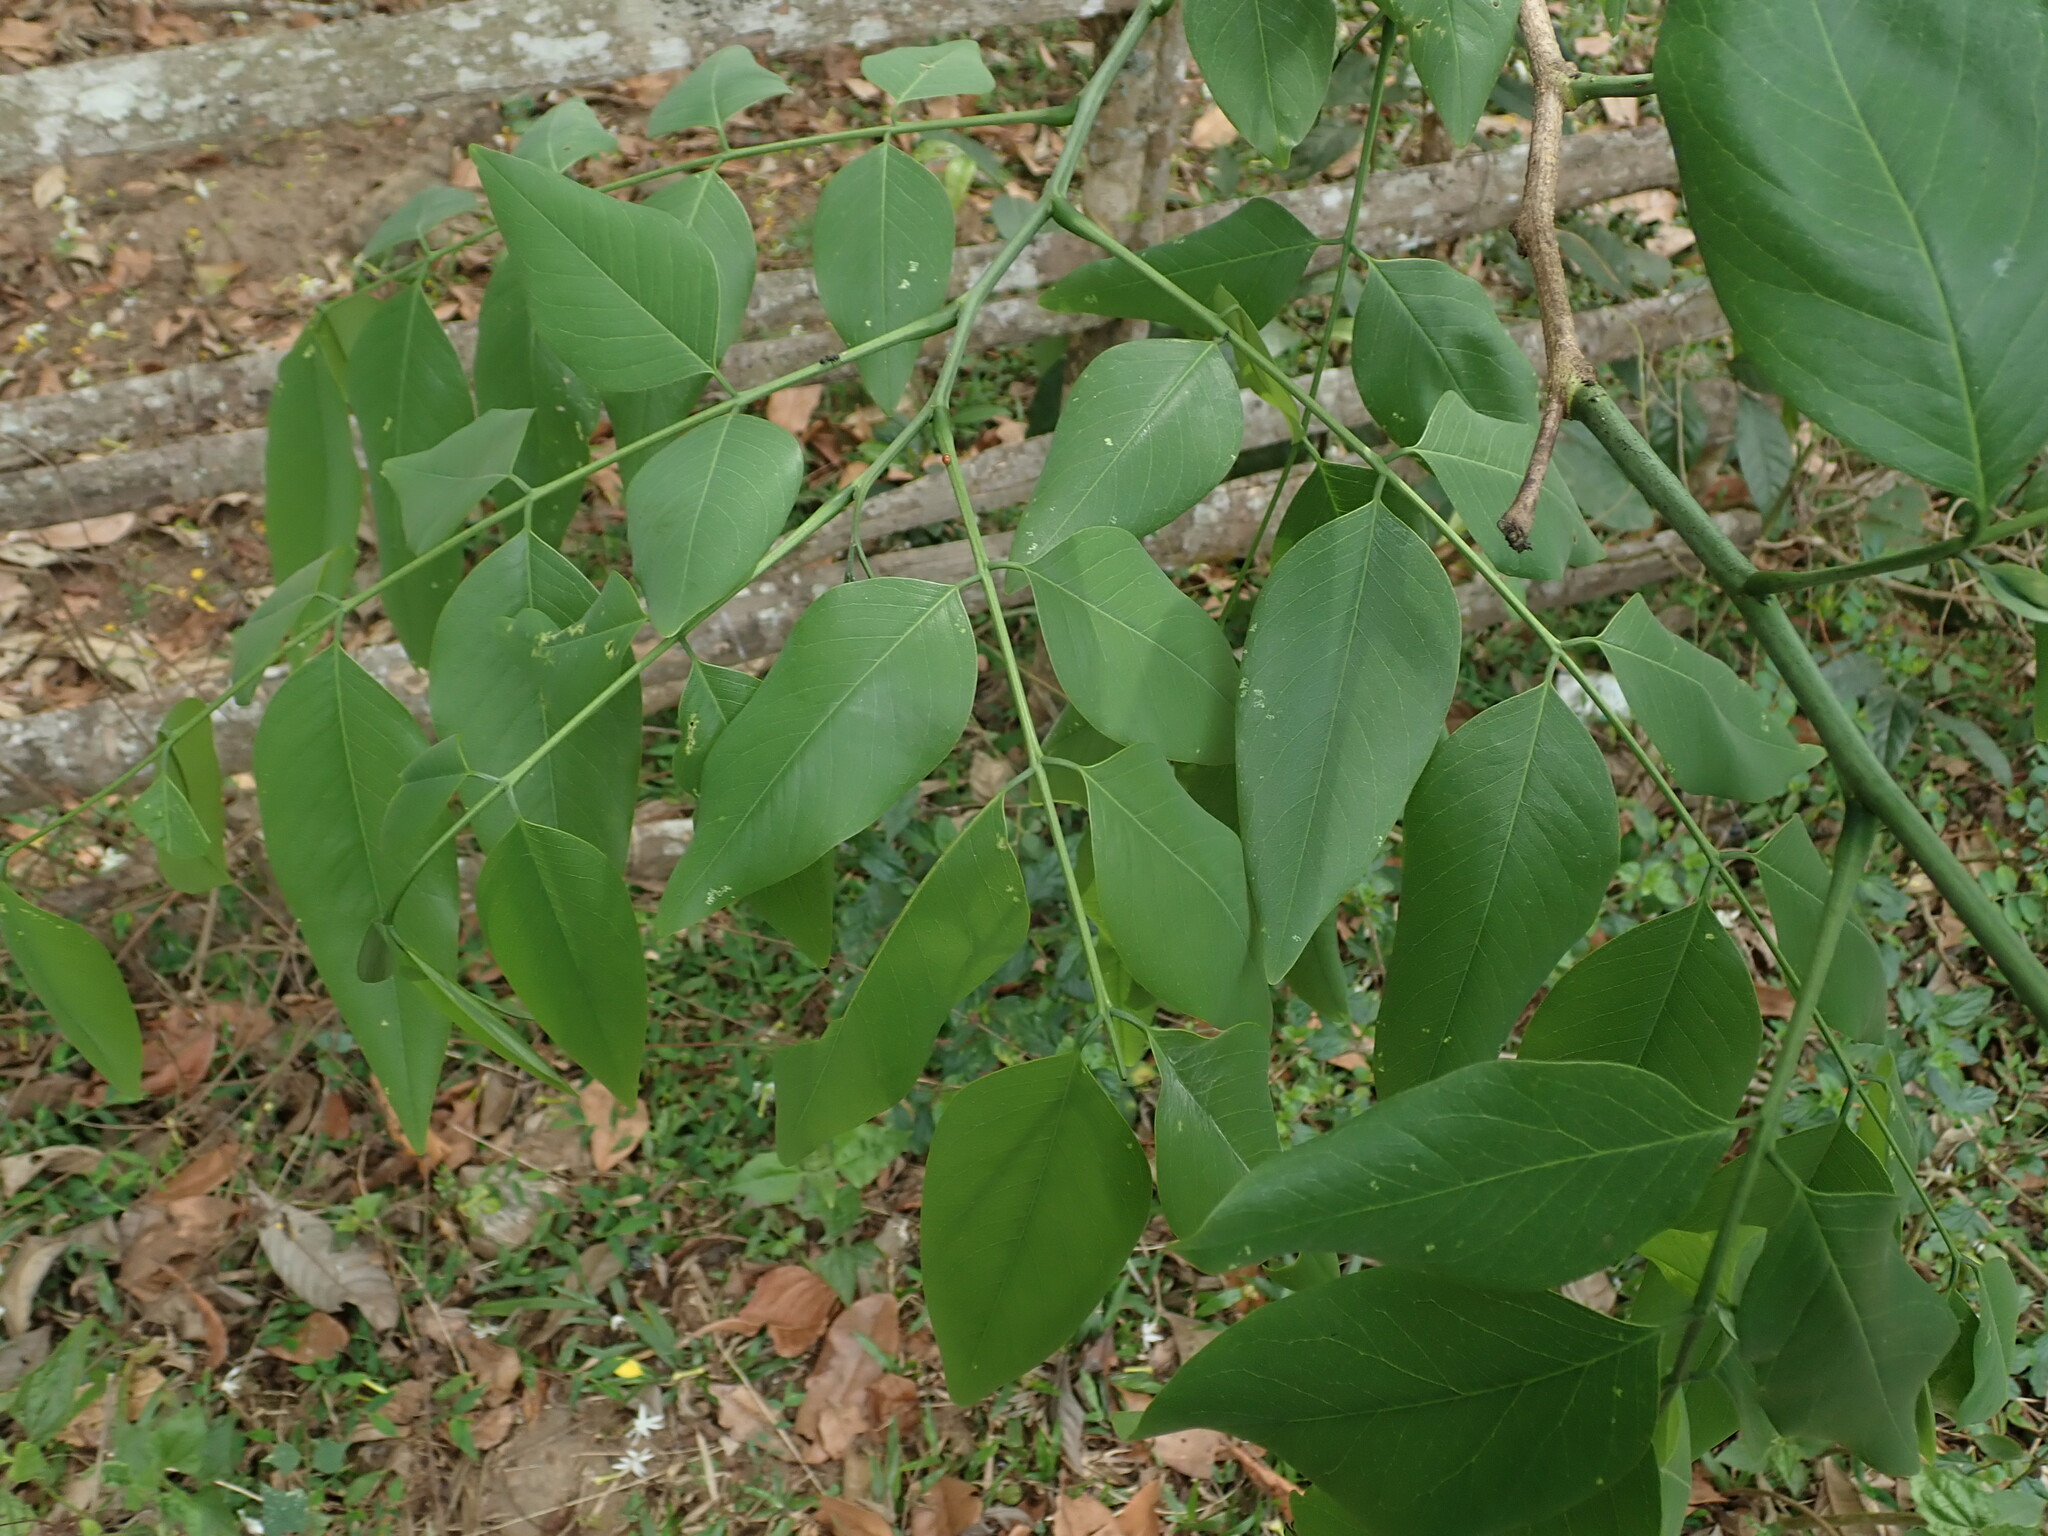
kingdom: Plantae
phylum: Tracheophyta
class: Magnoliopsida
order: Fabales
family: Fabaceae
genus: Cassia
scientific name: Cassia fistula
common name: Golden shower
